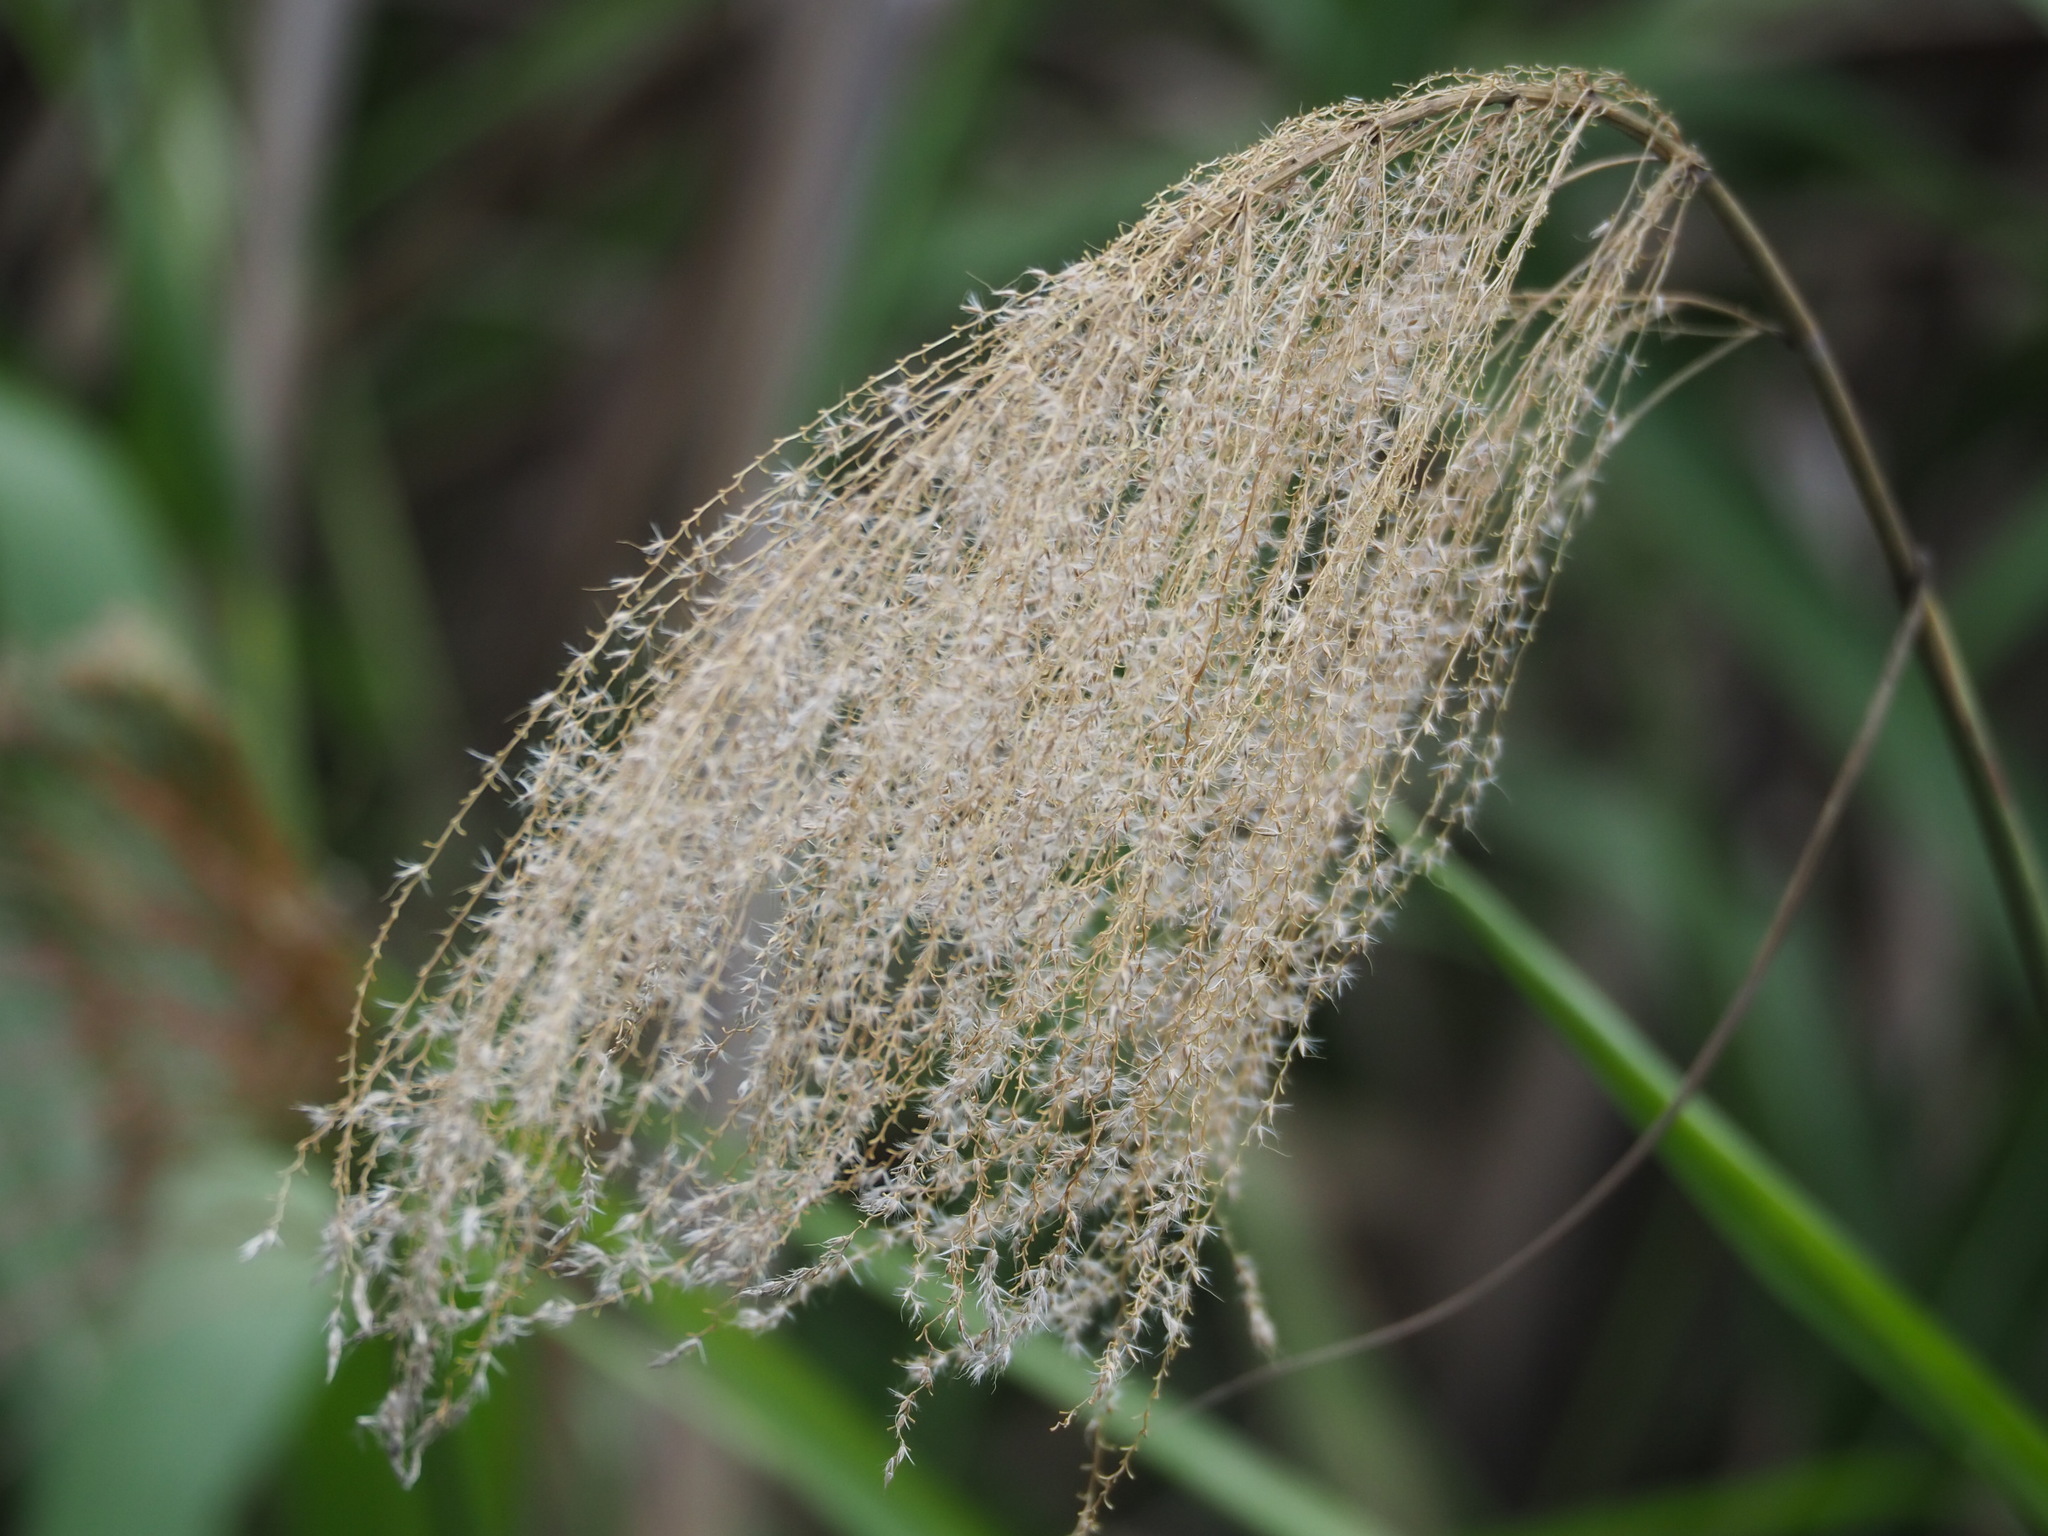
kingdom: Plantae
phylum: Tracheophyta
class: Liliopsida
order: Poales
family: Poaceae
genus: Miscanthus
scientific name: Miscanthus floridulus
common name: Pacific island silvergrass
